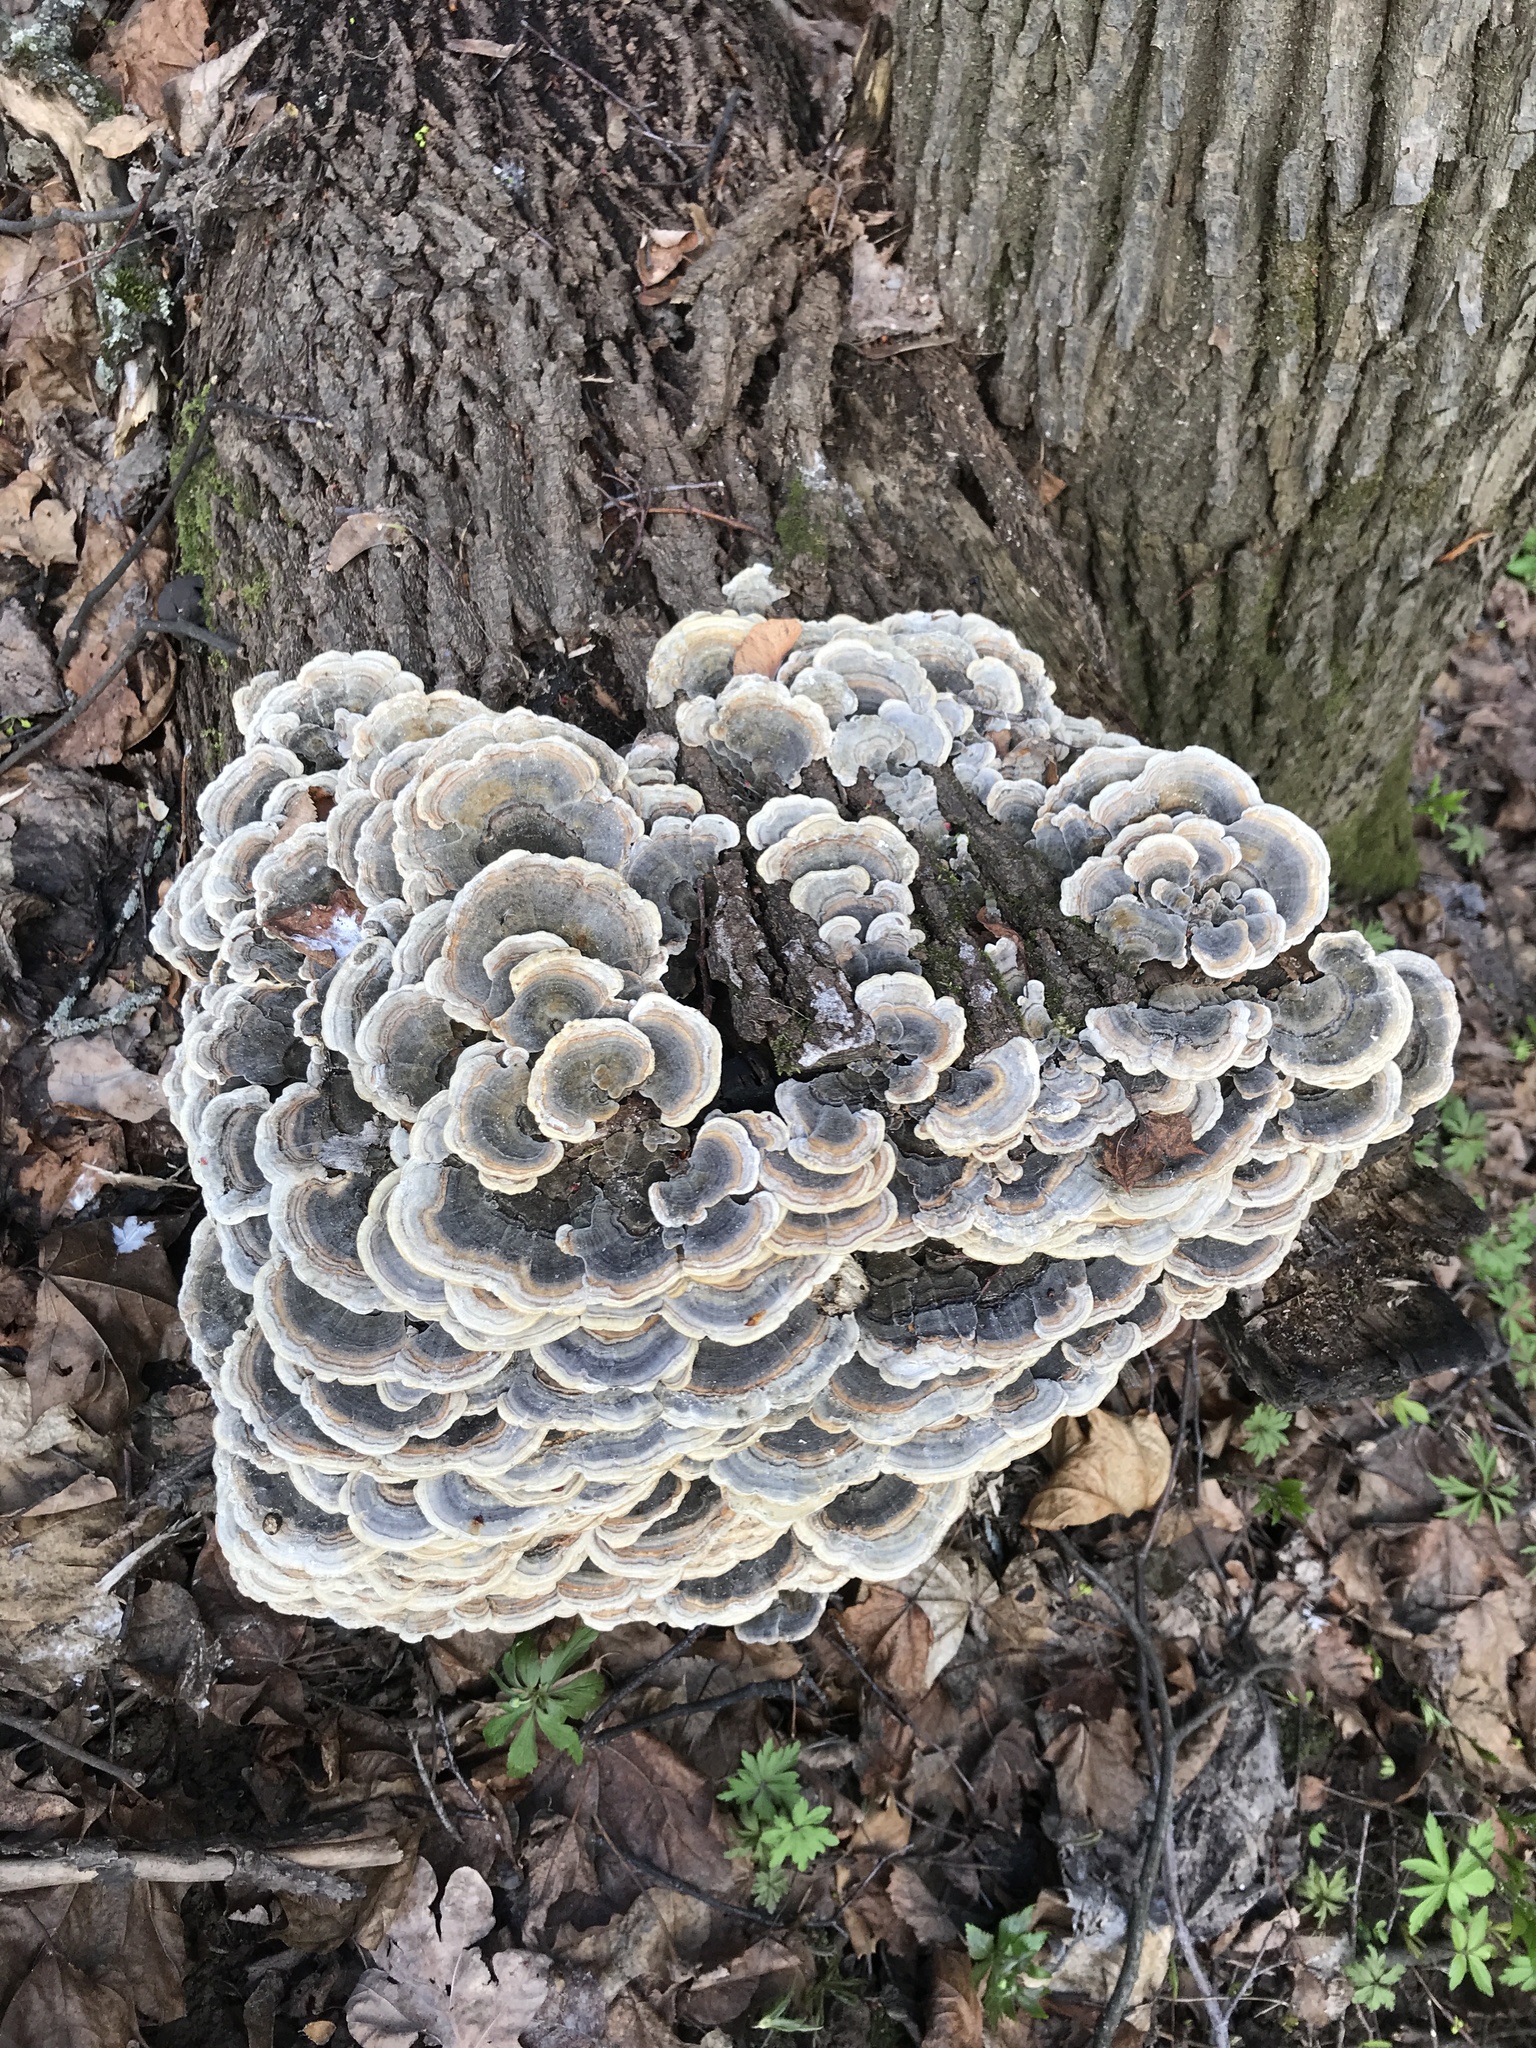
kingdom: Fungi
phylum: Basidiomycota
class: Agaricomycetes
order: Polyporales
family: Polyporaceae
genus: Trametes
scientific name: Trametes versicolor
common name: Turkeytail
